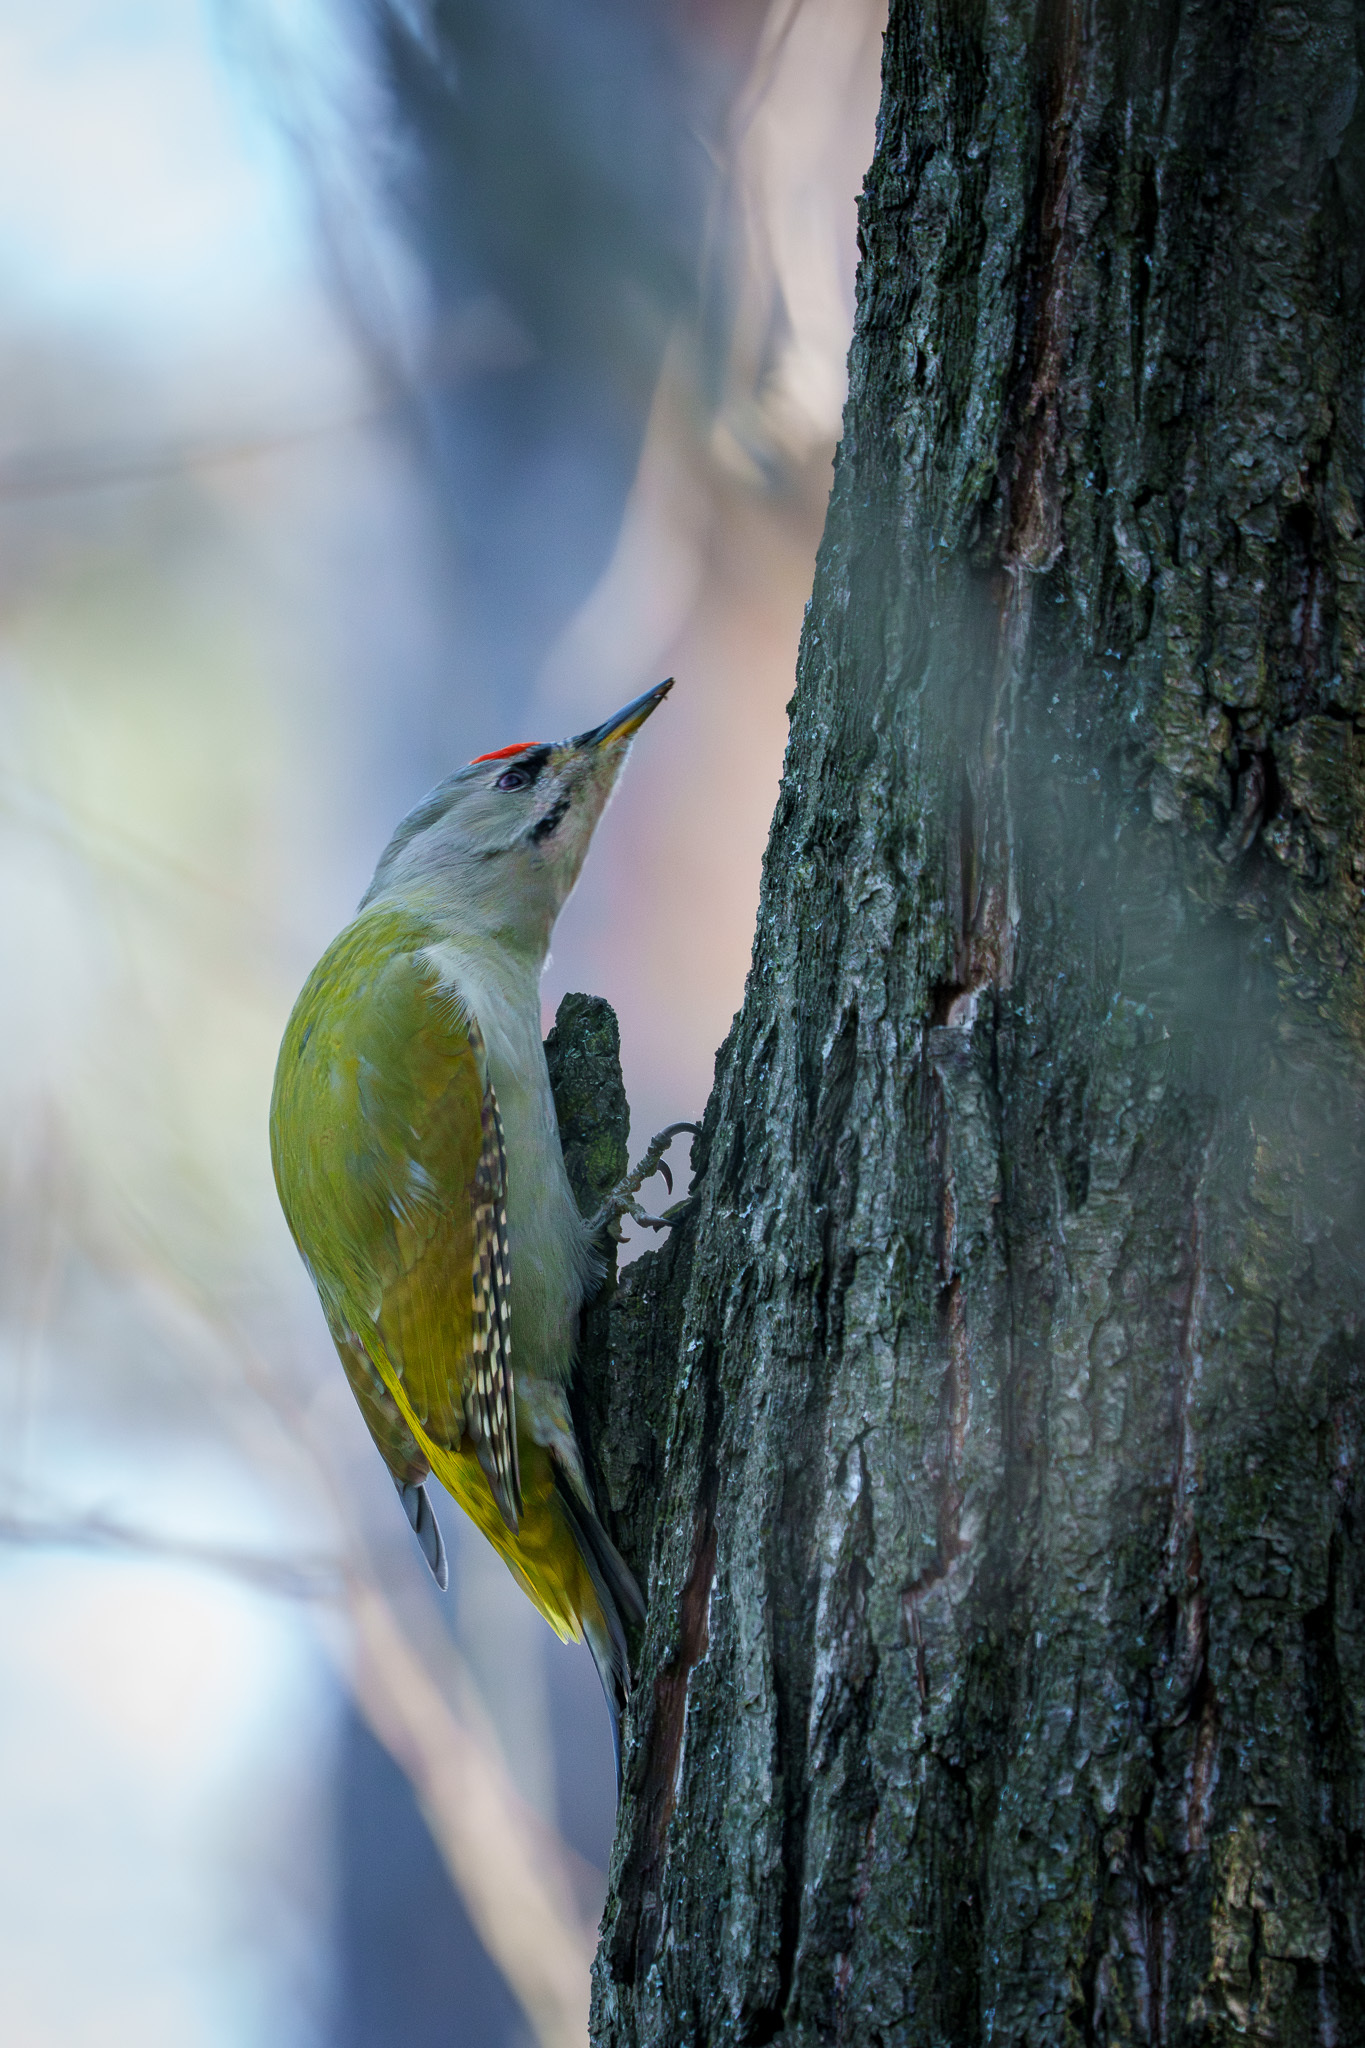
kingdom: Animalia
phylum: Chordata
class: Aves
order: Piciformes
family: Picidae
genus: Picus
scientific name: Picus canus
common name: Grey-headed woodpecker
